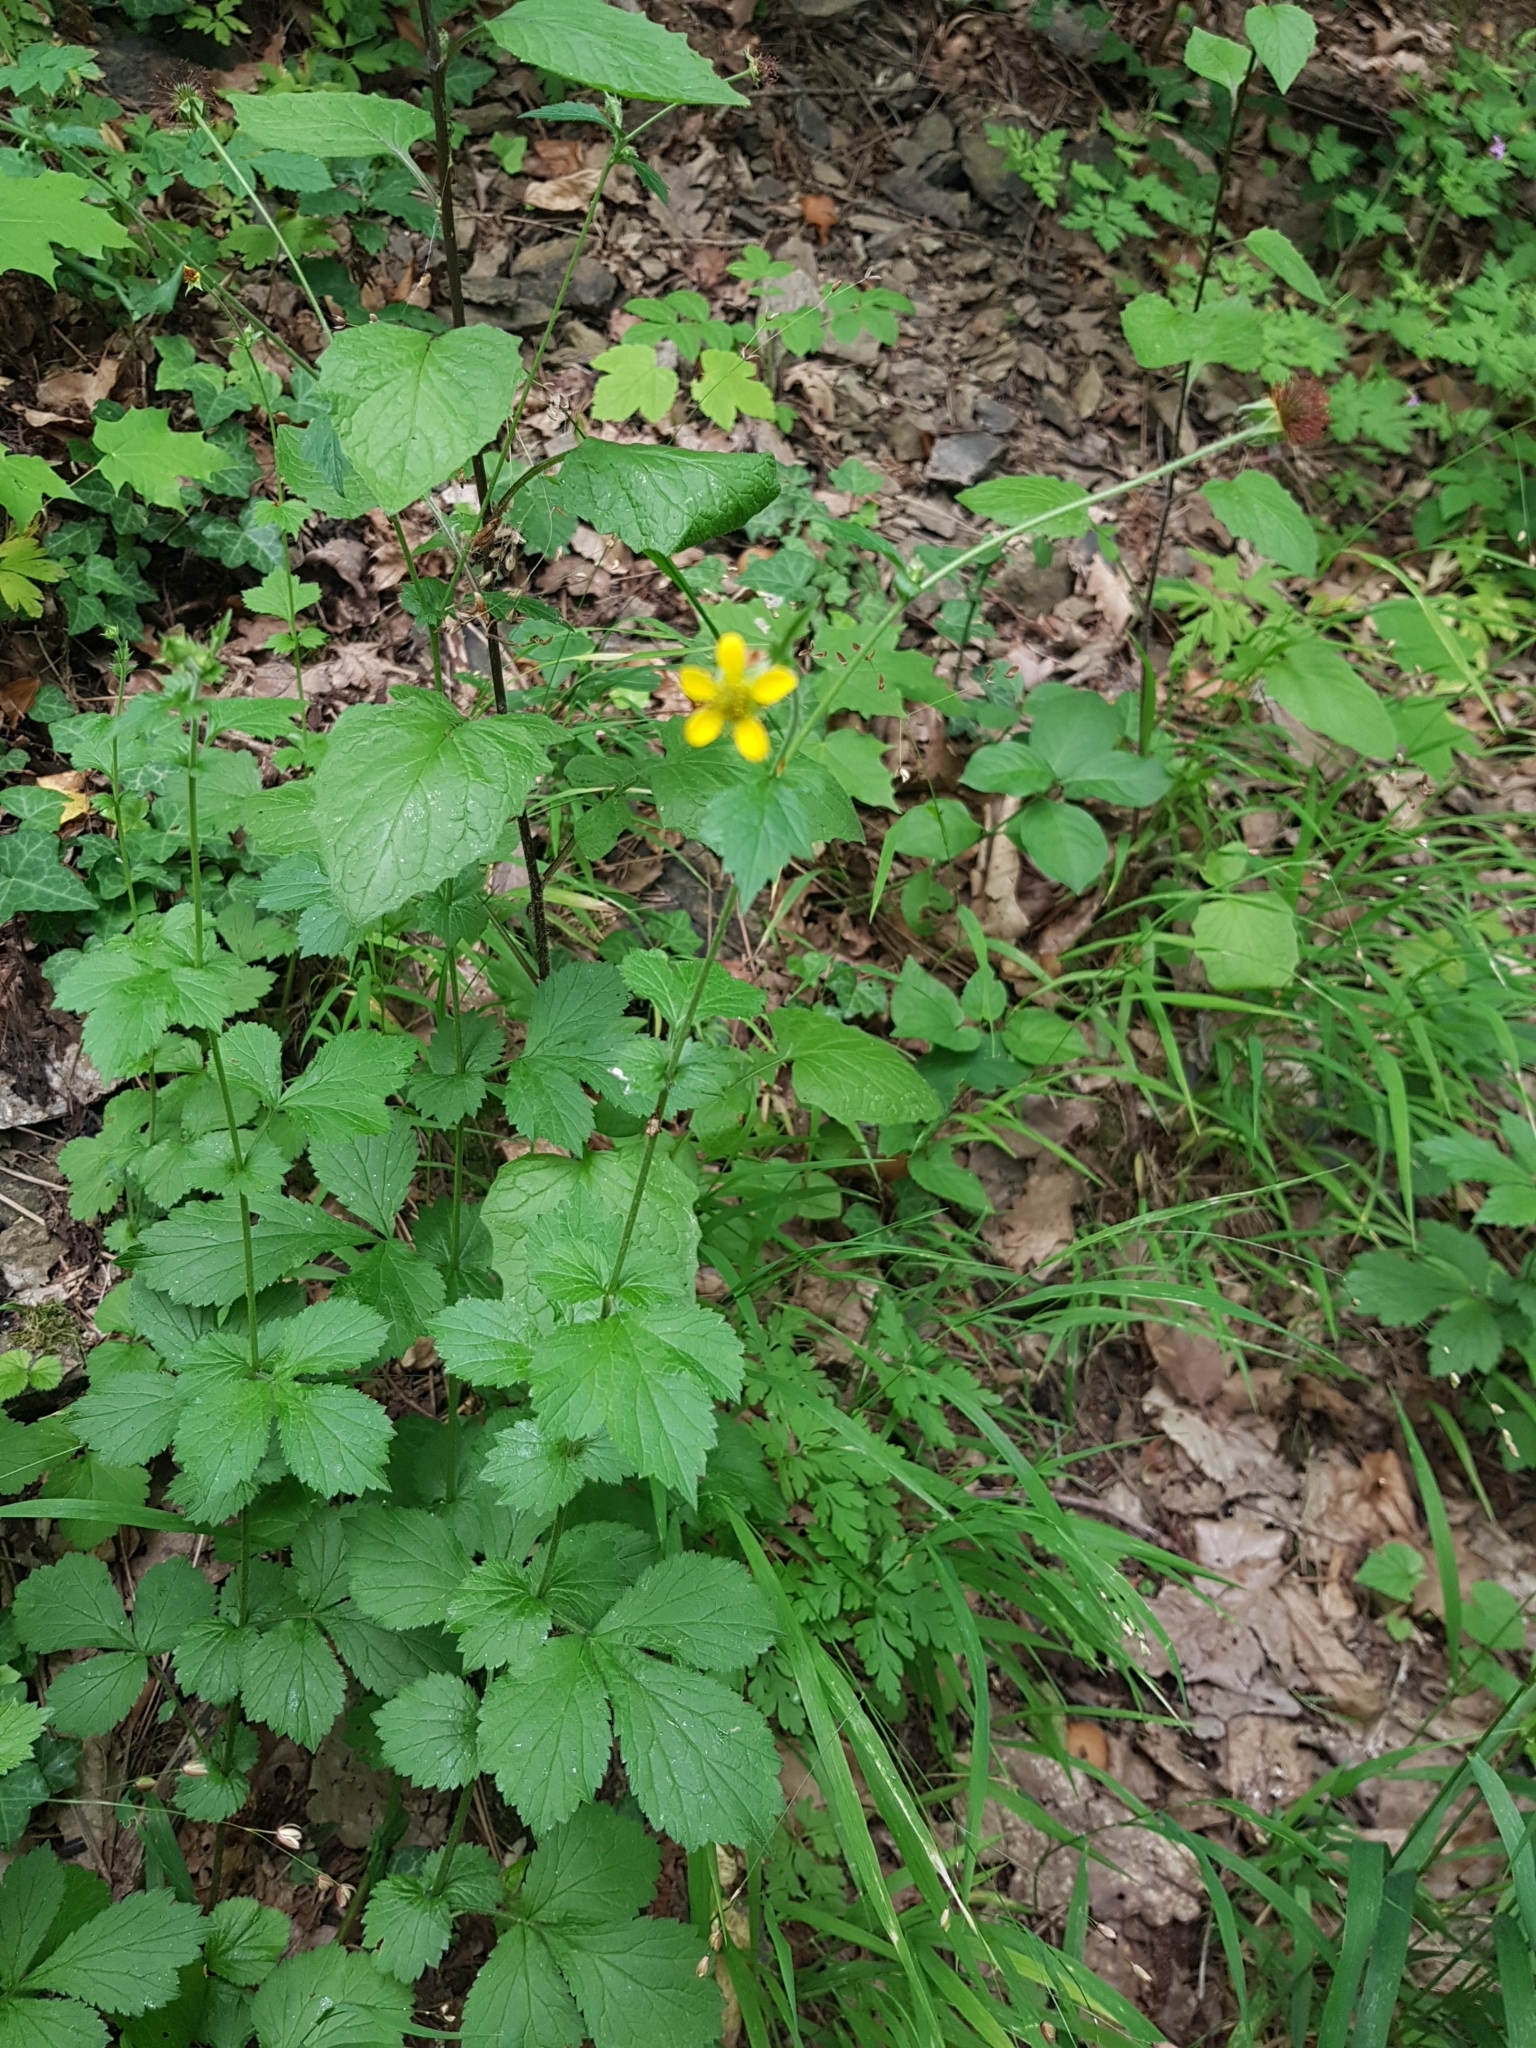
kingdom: Plantae
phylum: Tracheophyta
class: Magnoliopsida
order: Rosales
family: Rosaceae
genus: Geum
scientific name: Geum urbanum
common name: Wood avens
